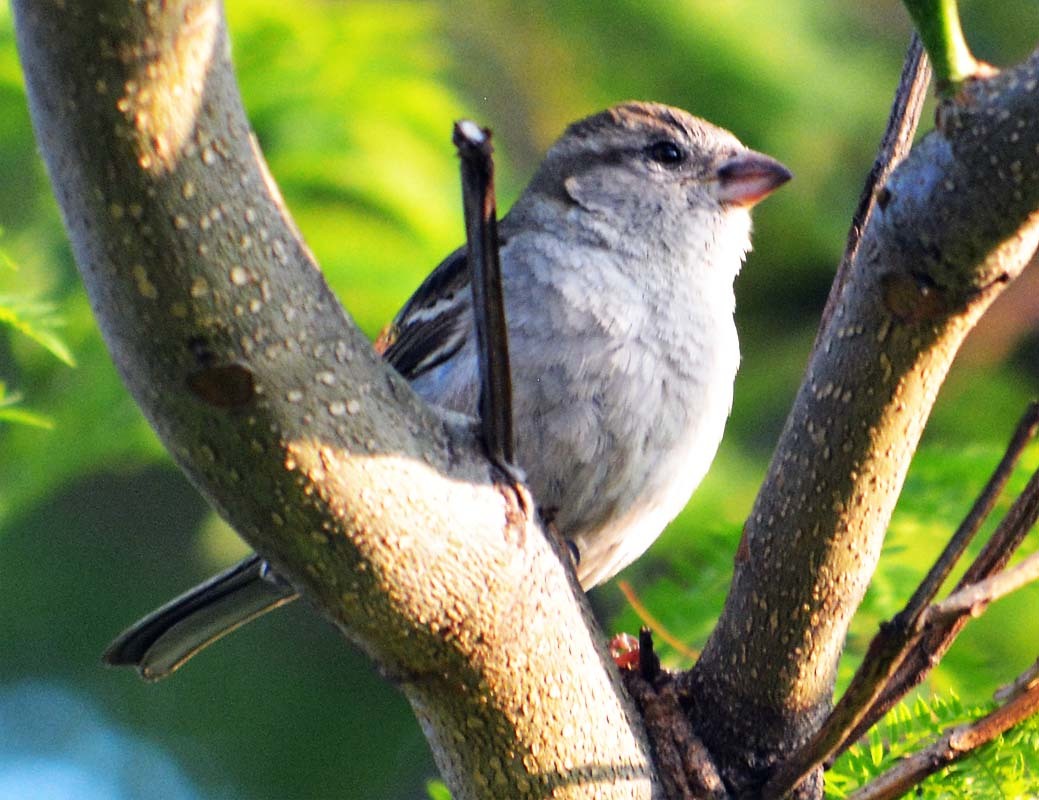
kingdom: Animalia
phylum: Chordata
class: Aves
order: Passeriformes
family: Passeridae
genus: Passer
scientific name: Passer domesticus
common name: House sparrow
